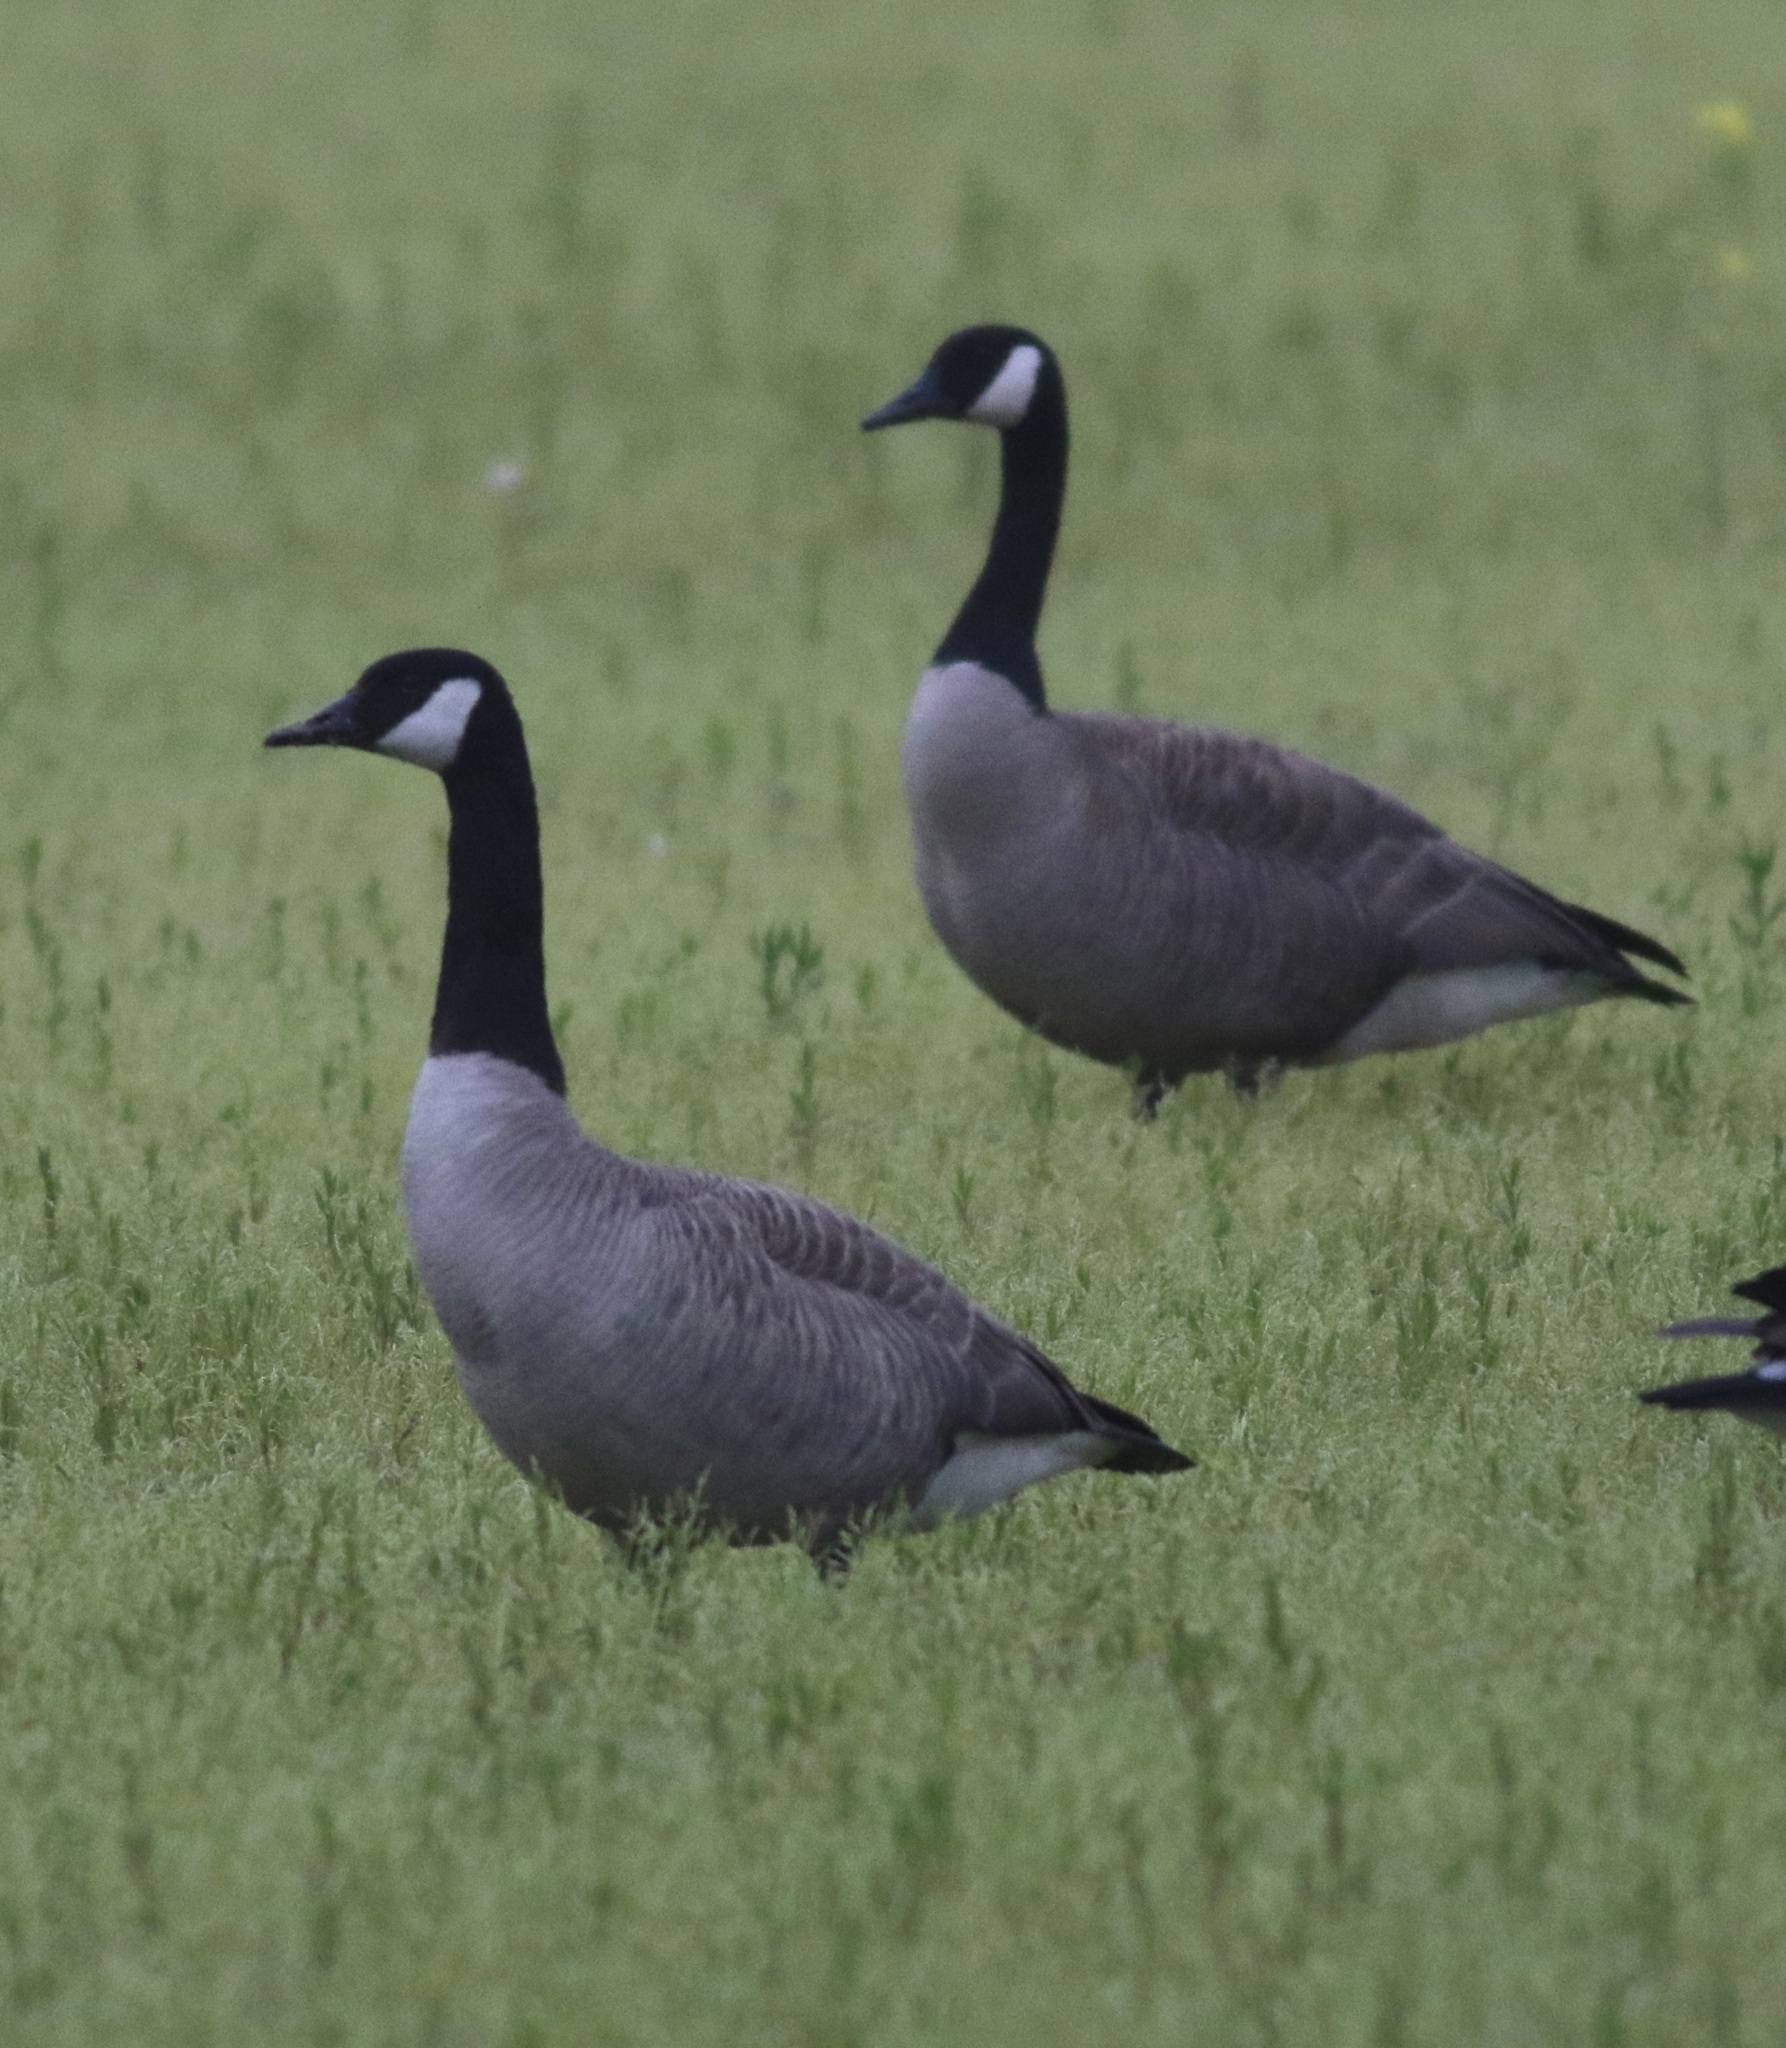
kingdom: Animalia
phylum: Chordata
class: Aves
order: Anseriformes
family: Anatidae
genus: Branta
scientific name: Branta canadensis
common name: Canada goose
